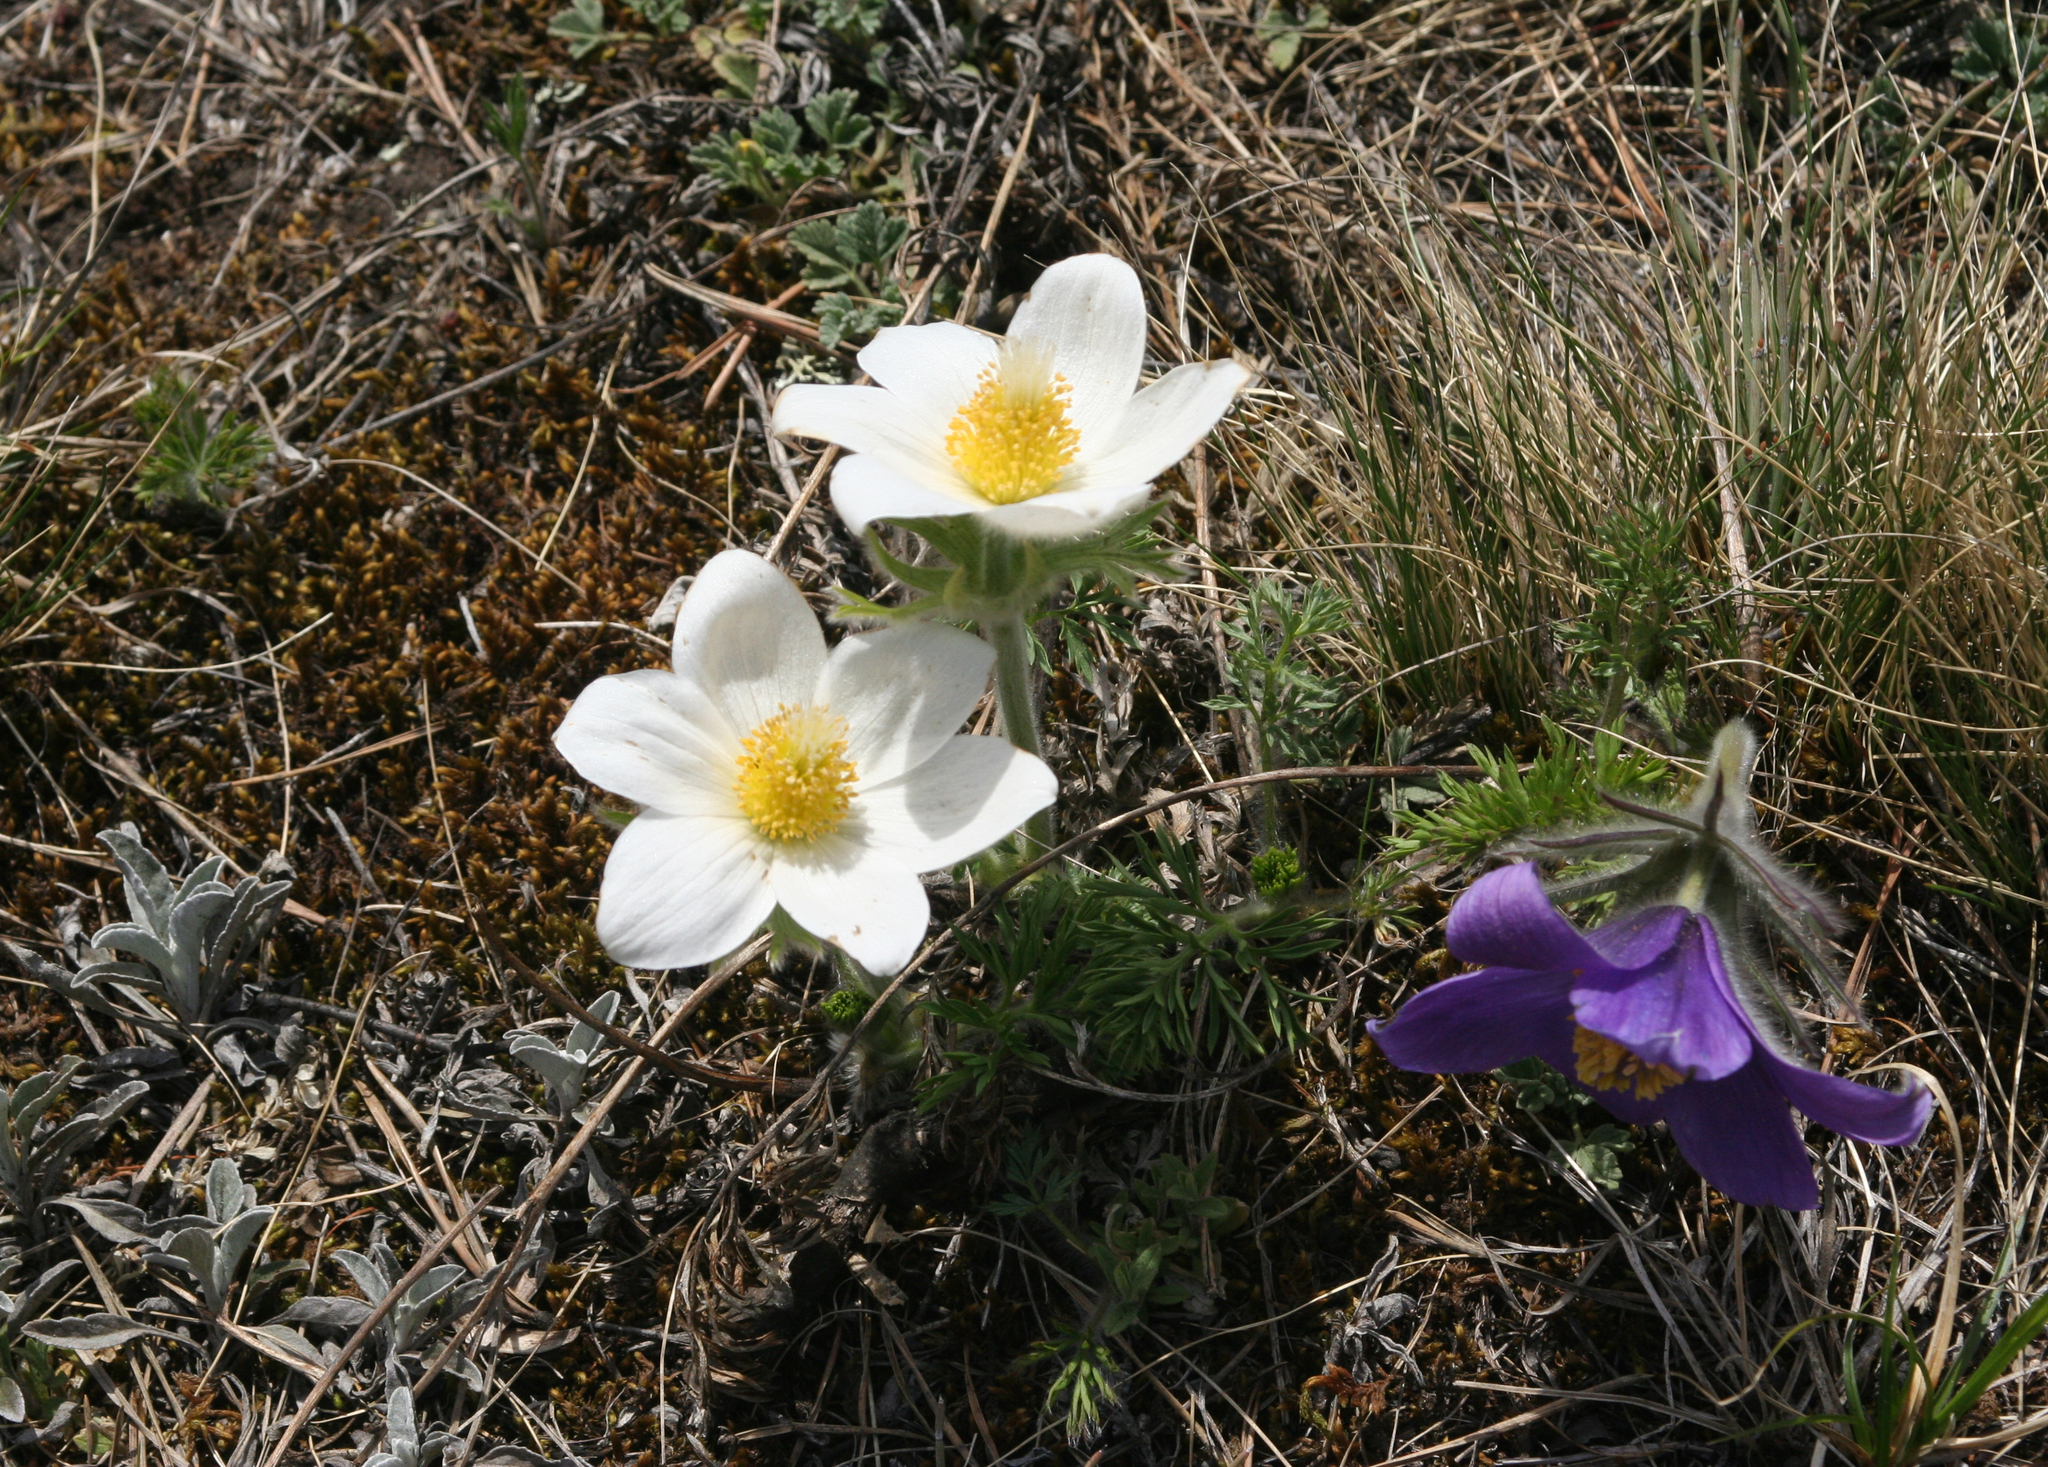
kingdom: Plantae
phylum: Tracheophyta
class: Magnoliopsida
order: Ranunculales
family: Ranunculaceae
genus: Pulsatilla
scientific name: Pulsatilla turczaninovii
